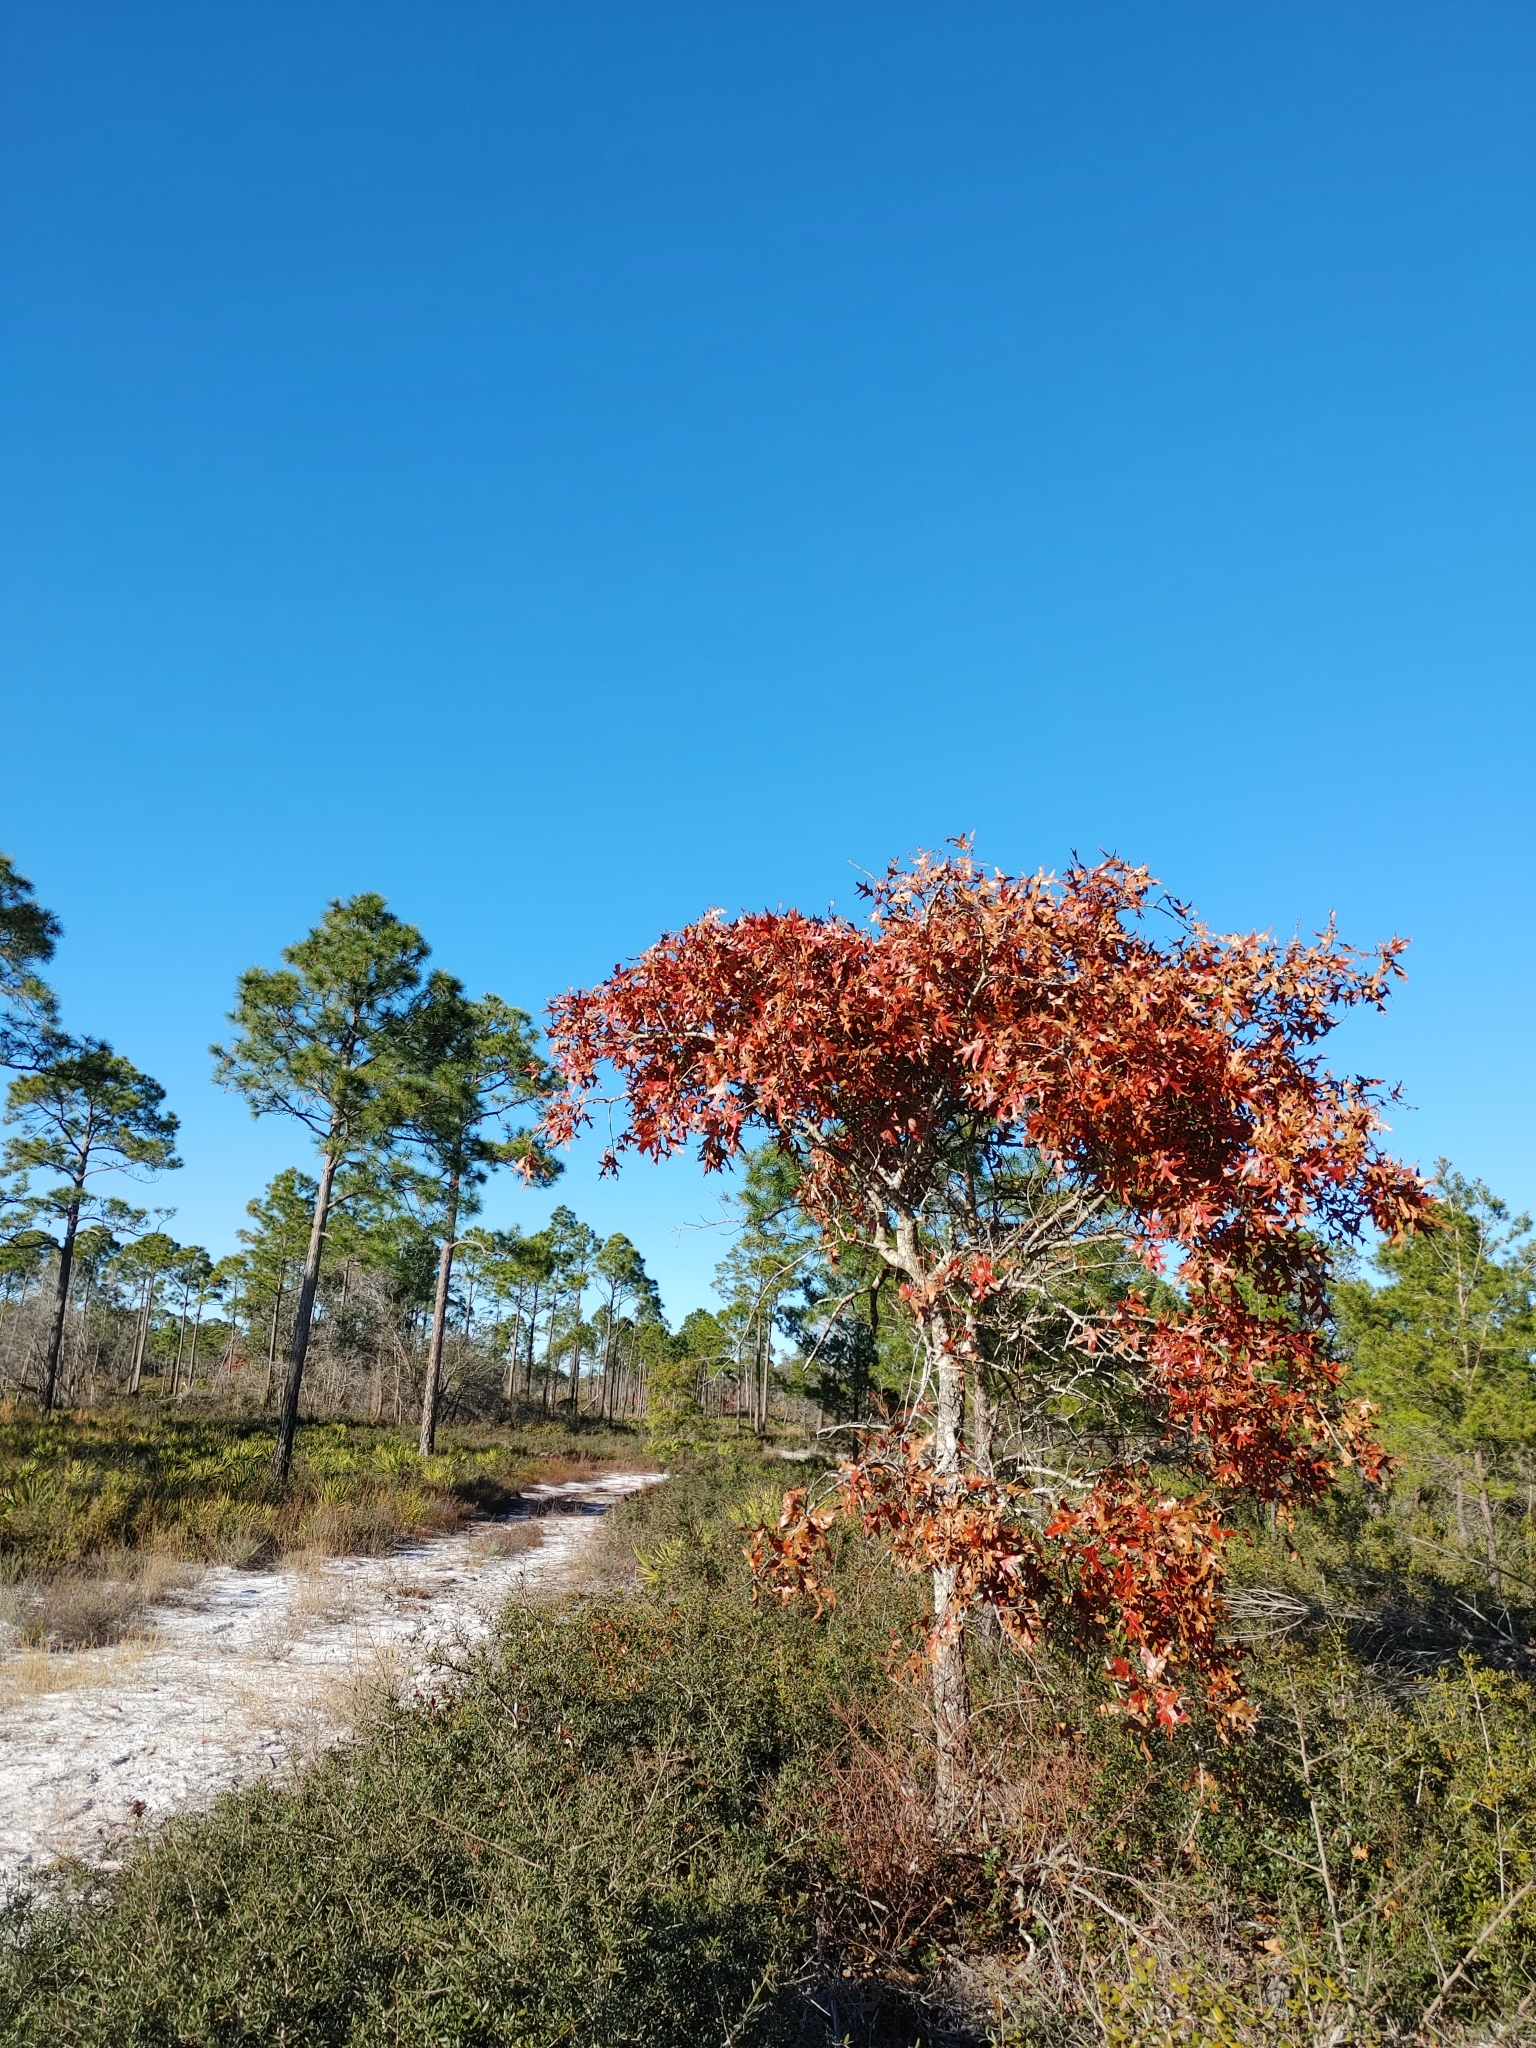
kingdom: Plantae
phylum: Tracheophyta
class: Magnoliopsida
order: Fagales
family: Fagaceae
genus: Quercus
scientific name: Quercus laevis
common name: Turkey oak
